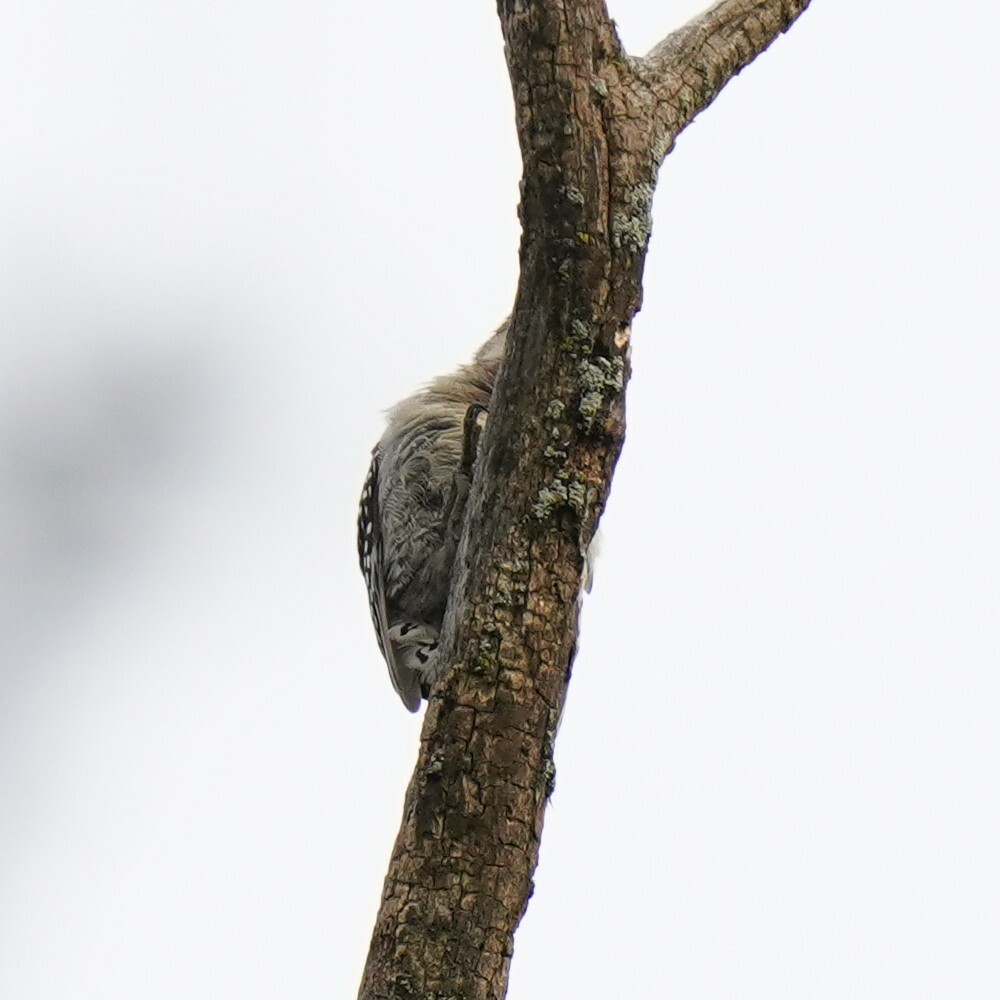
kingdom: Animalia
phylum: Chordata
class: Aves
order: Piciformes
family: Picidae
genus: Melanerpes
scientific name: Melanerpes carolinus
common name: Red-bellied woodpecker
